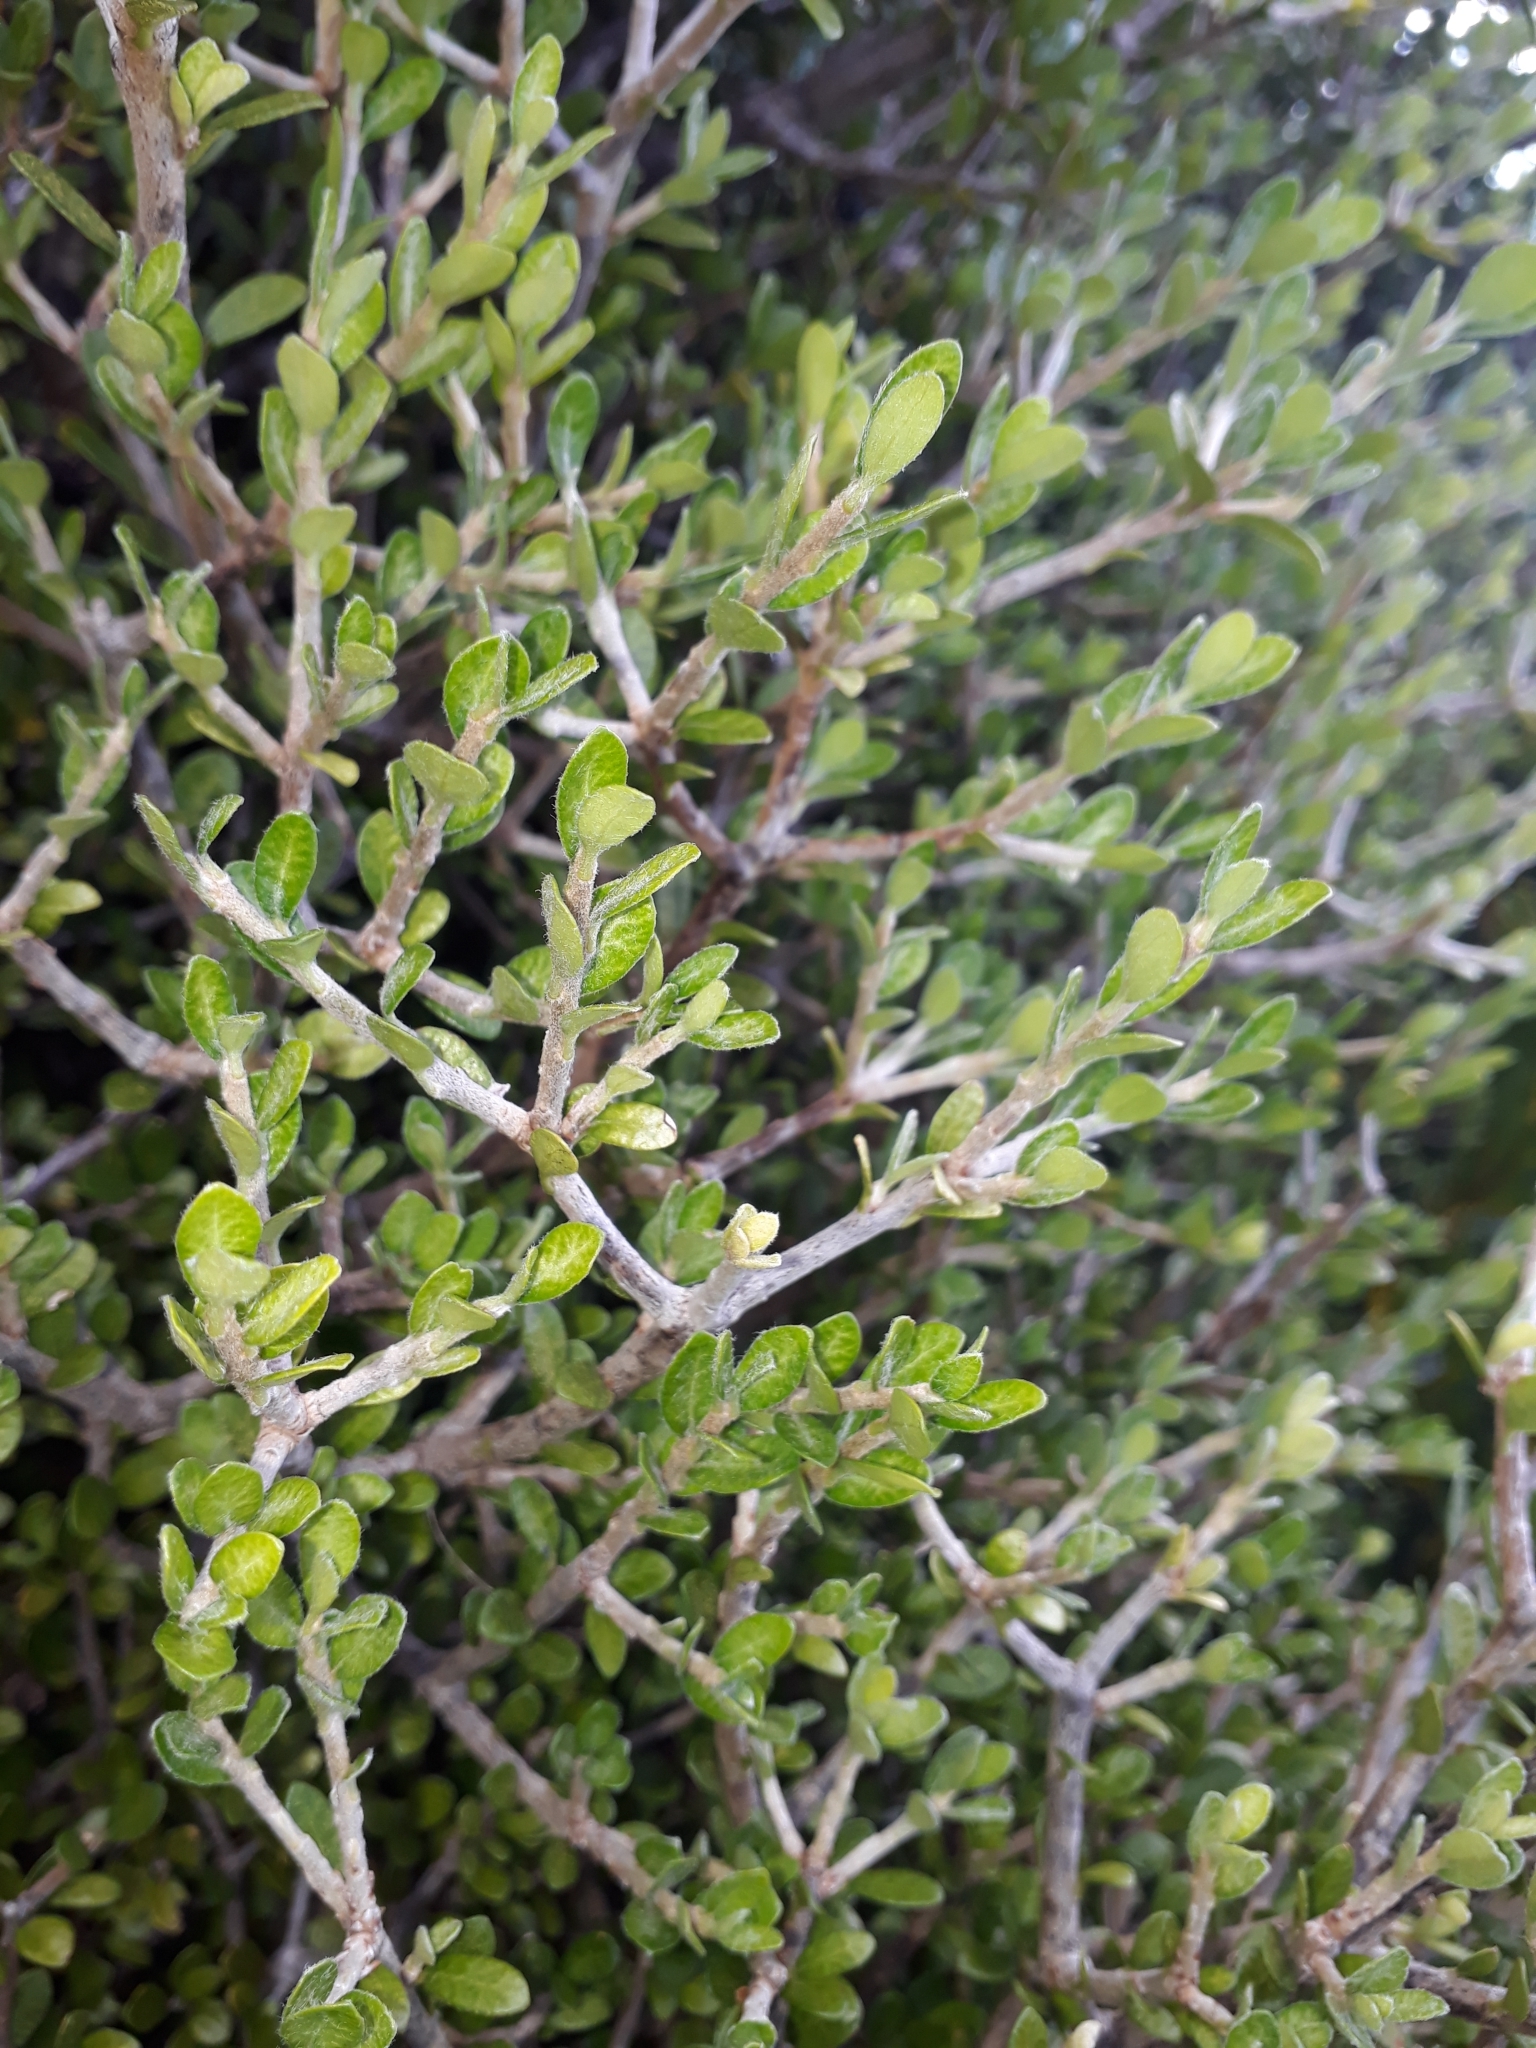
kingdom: Plantae
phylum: Tracheophyta
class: Magnoliopsida
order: Apiales
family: Pittosporaceae
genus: Pittosporum
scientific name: Pittosporum rigidum
